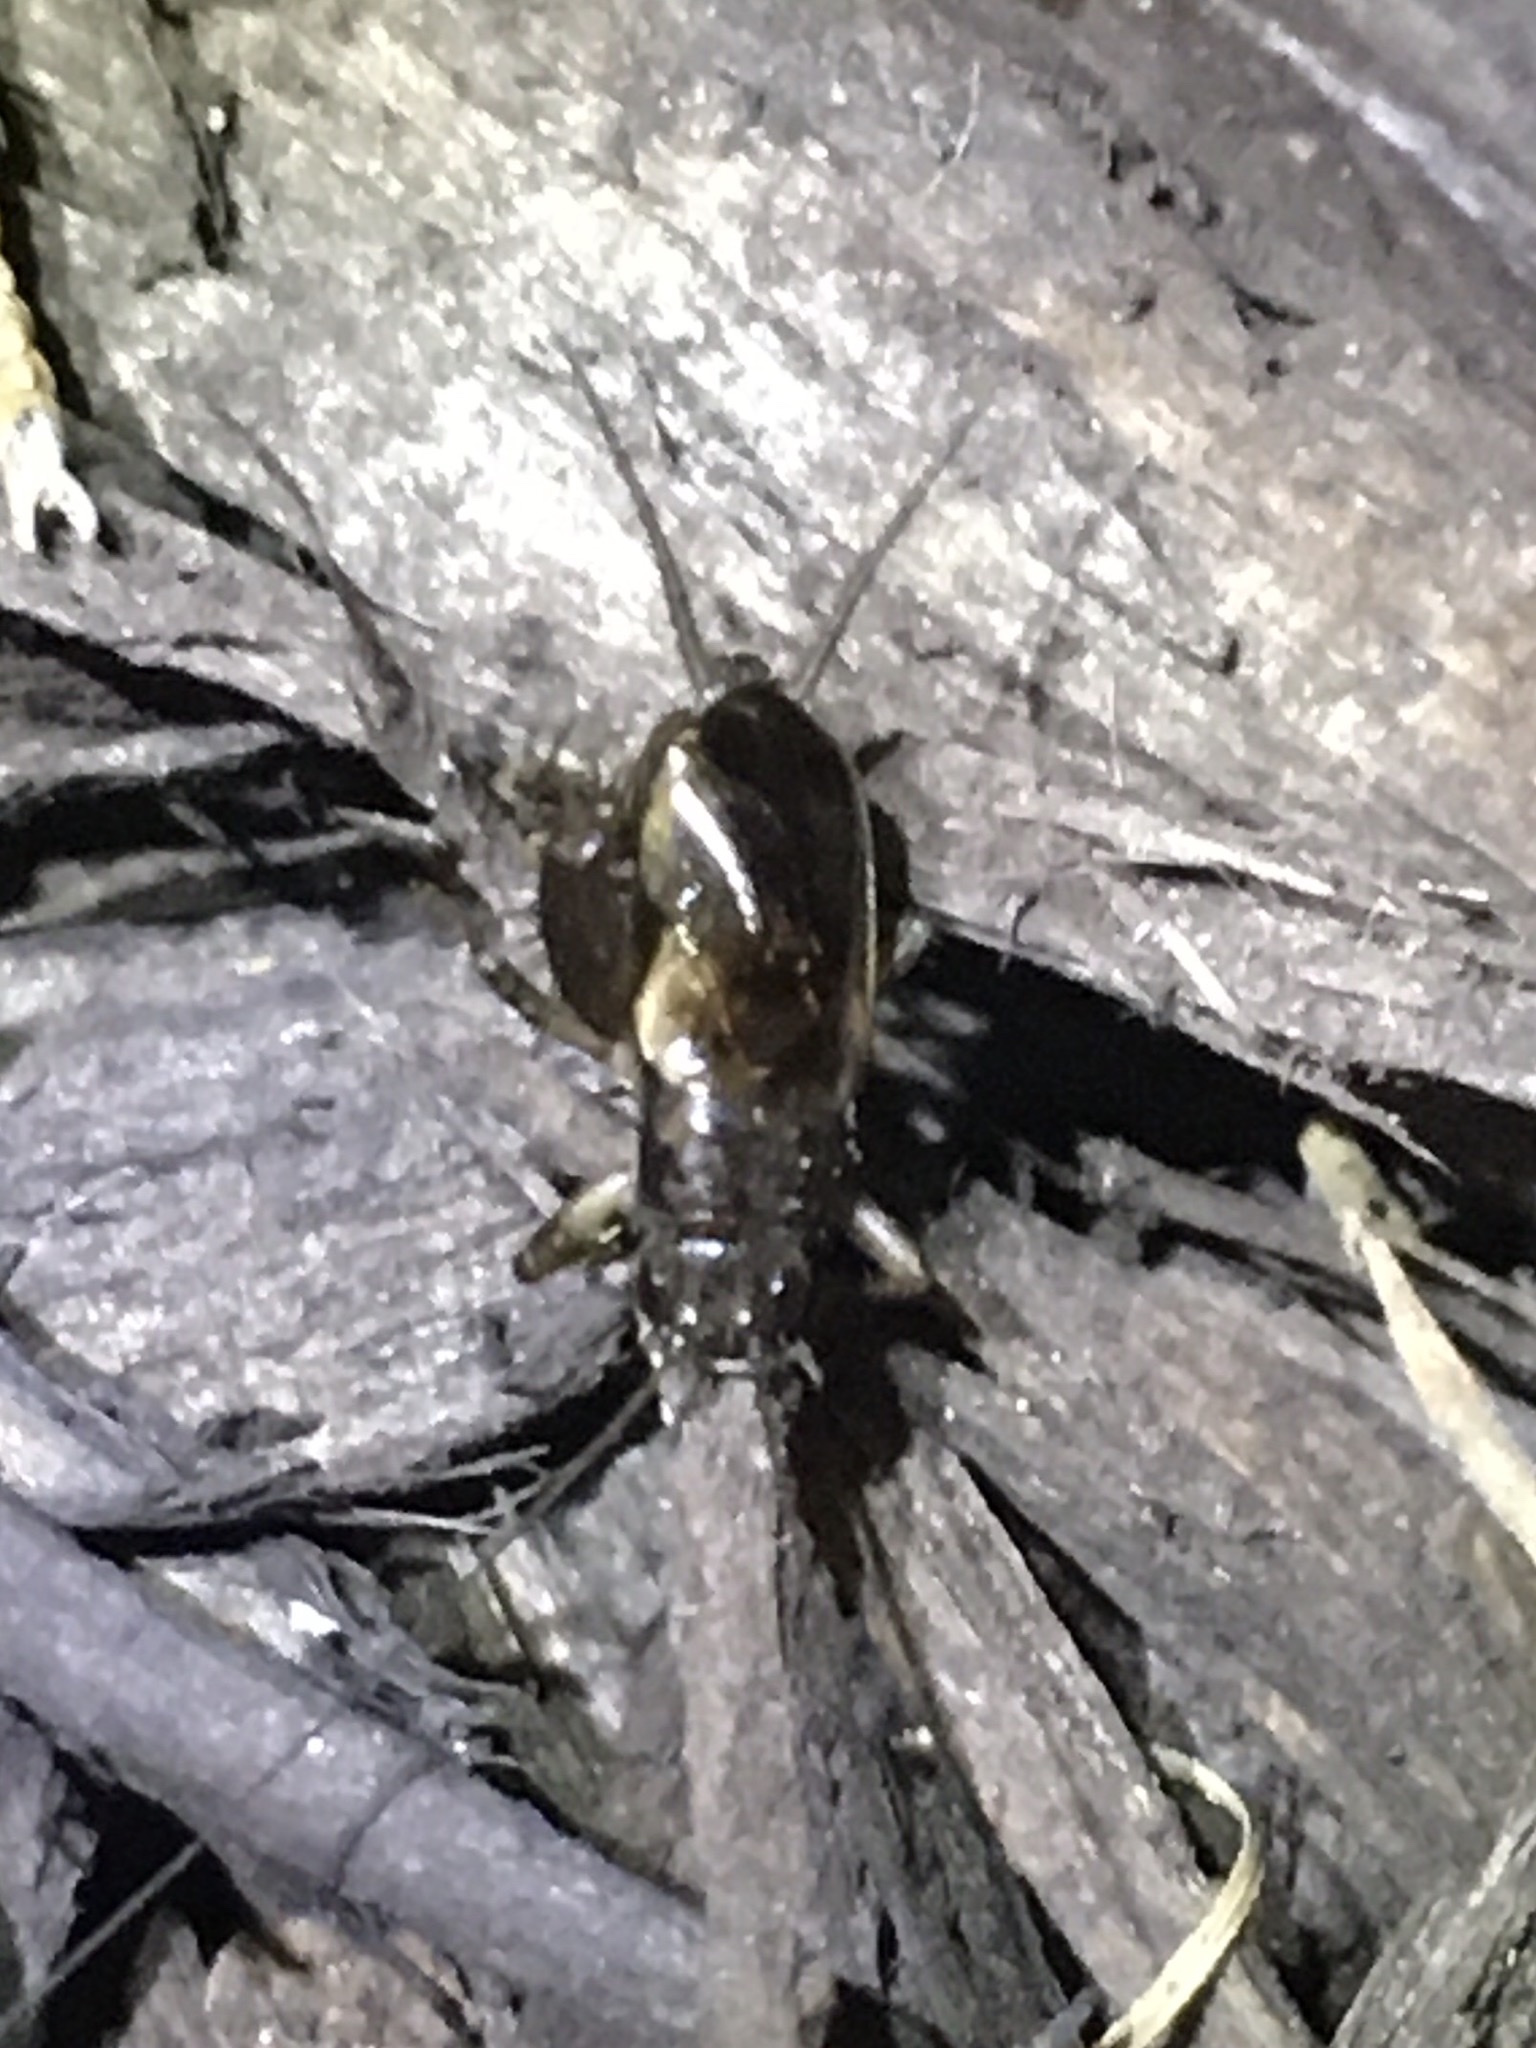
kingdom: Animalia
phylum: Arthropoda
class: Insecta
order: Orthoptera
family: Trigonidiidae
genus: Eunemobius
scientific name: Eunemobius carolinus
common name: Carolina ground cricket
